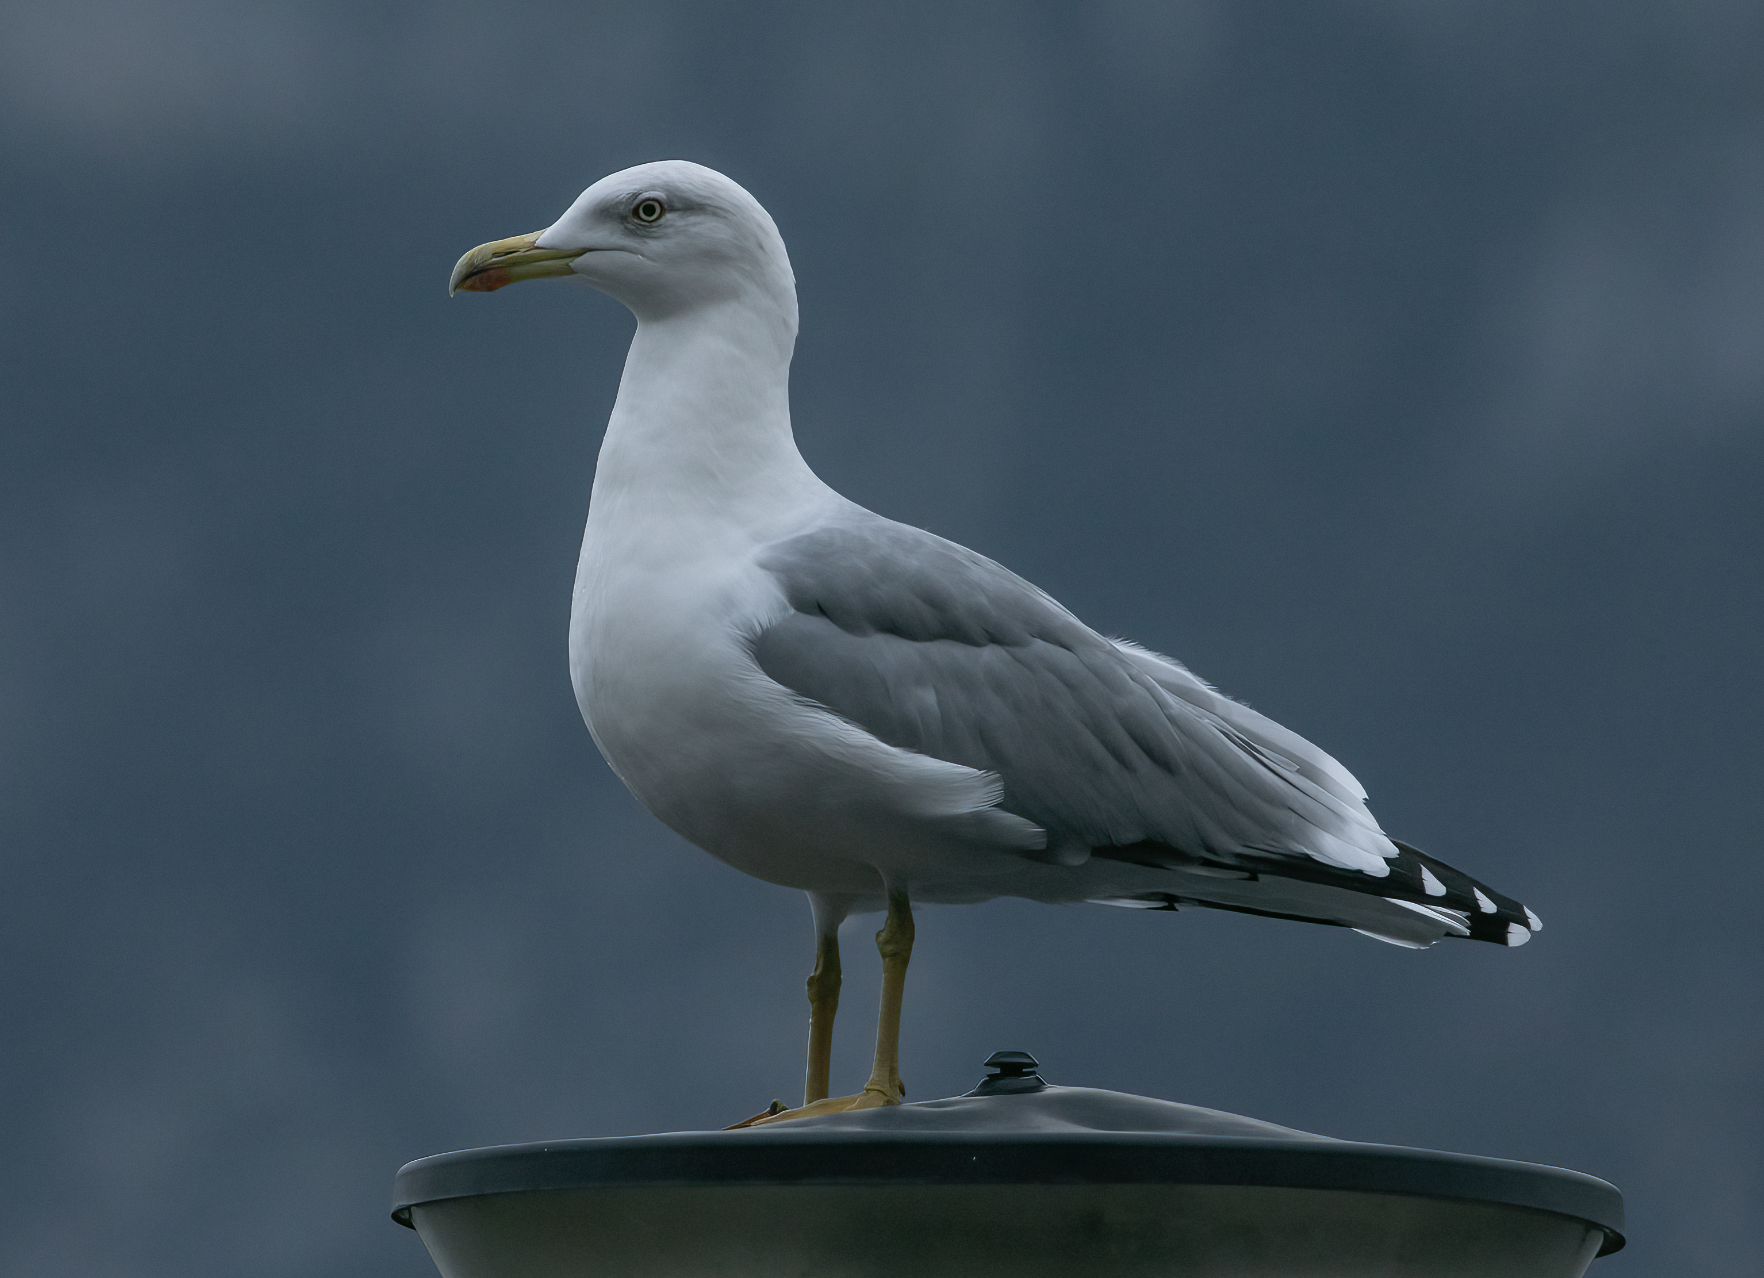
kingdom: Animalia
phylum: Chordata
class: Aves
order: Charadriiformes
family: Laridae
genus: Larus
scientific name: Larus michahellis
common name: Yellow-legged gull
